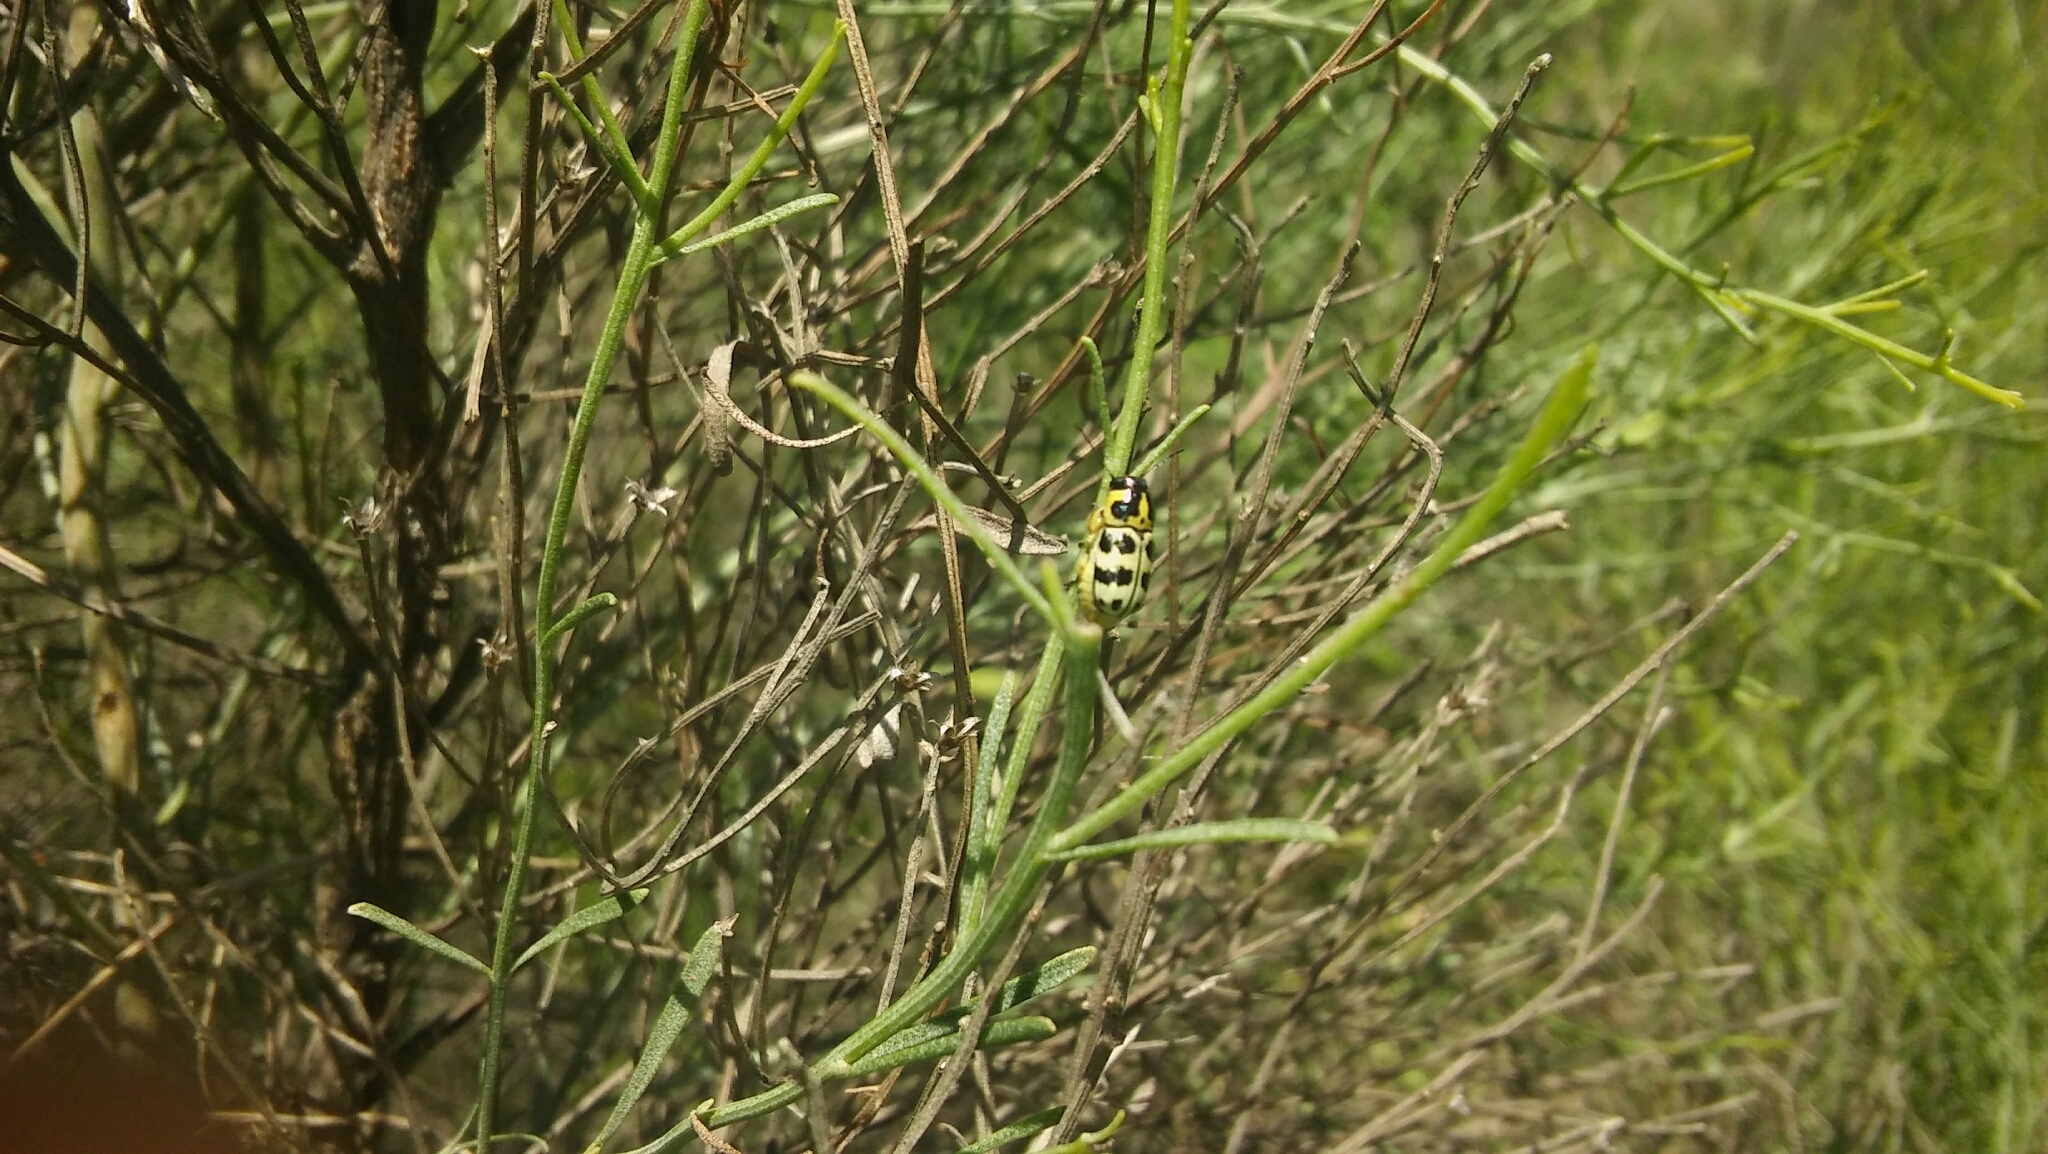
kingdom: Animalia
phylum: Arthropoda
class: Insecta
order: Coleoptera
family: Chrysomelidae
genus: Metallactus
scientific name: Metallactus rileyi
